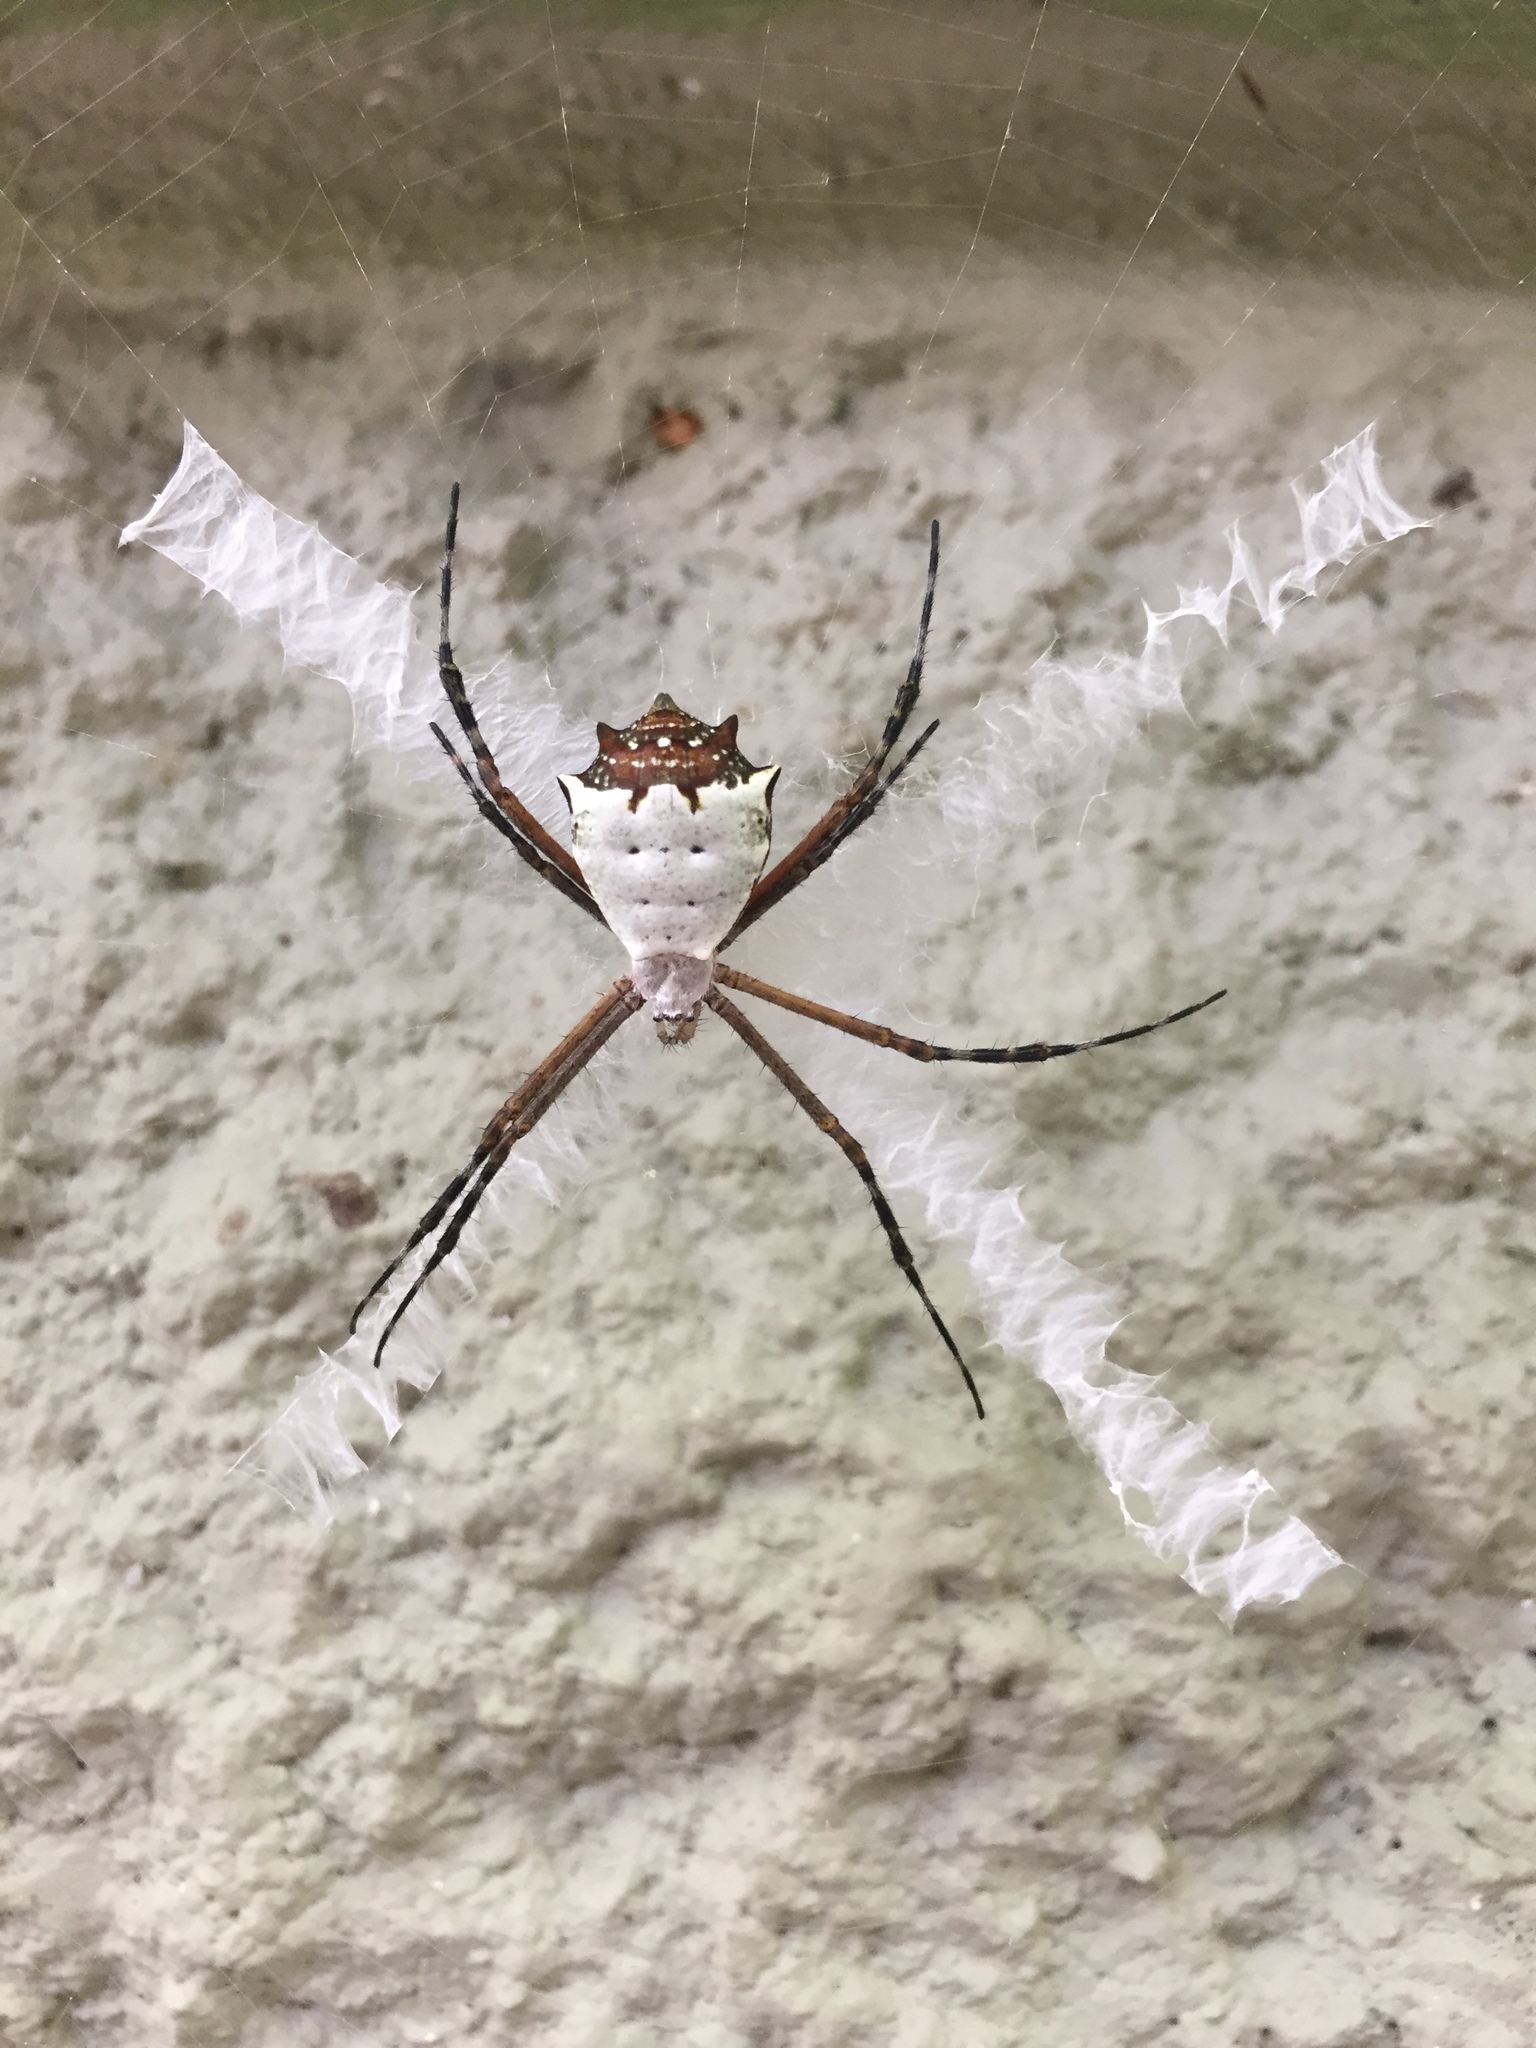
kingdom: Animalia
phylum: Arthropoda
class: Arachnida
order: Araneae
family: Araneidae
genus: Argiope
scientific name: Argiope submaronica
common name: Orb weavers
